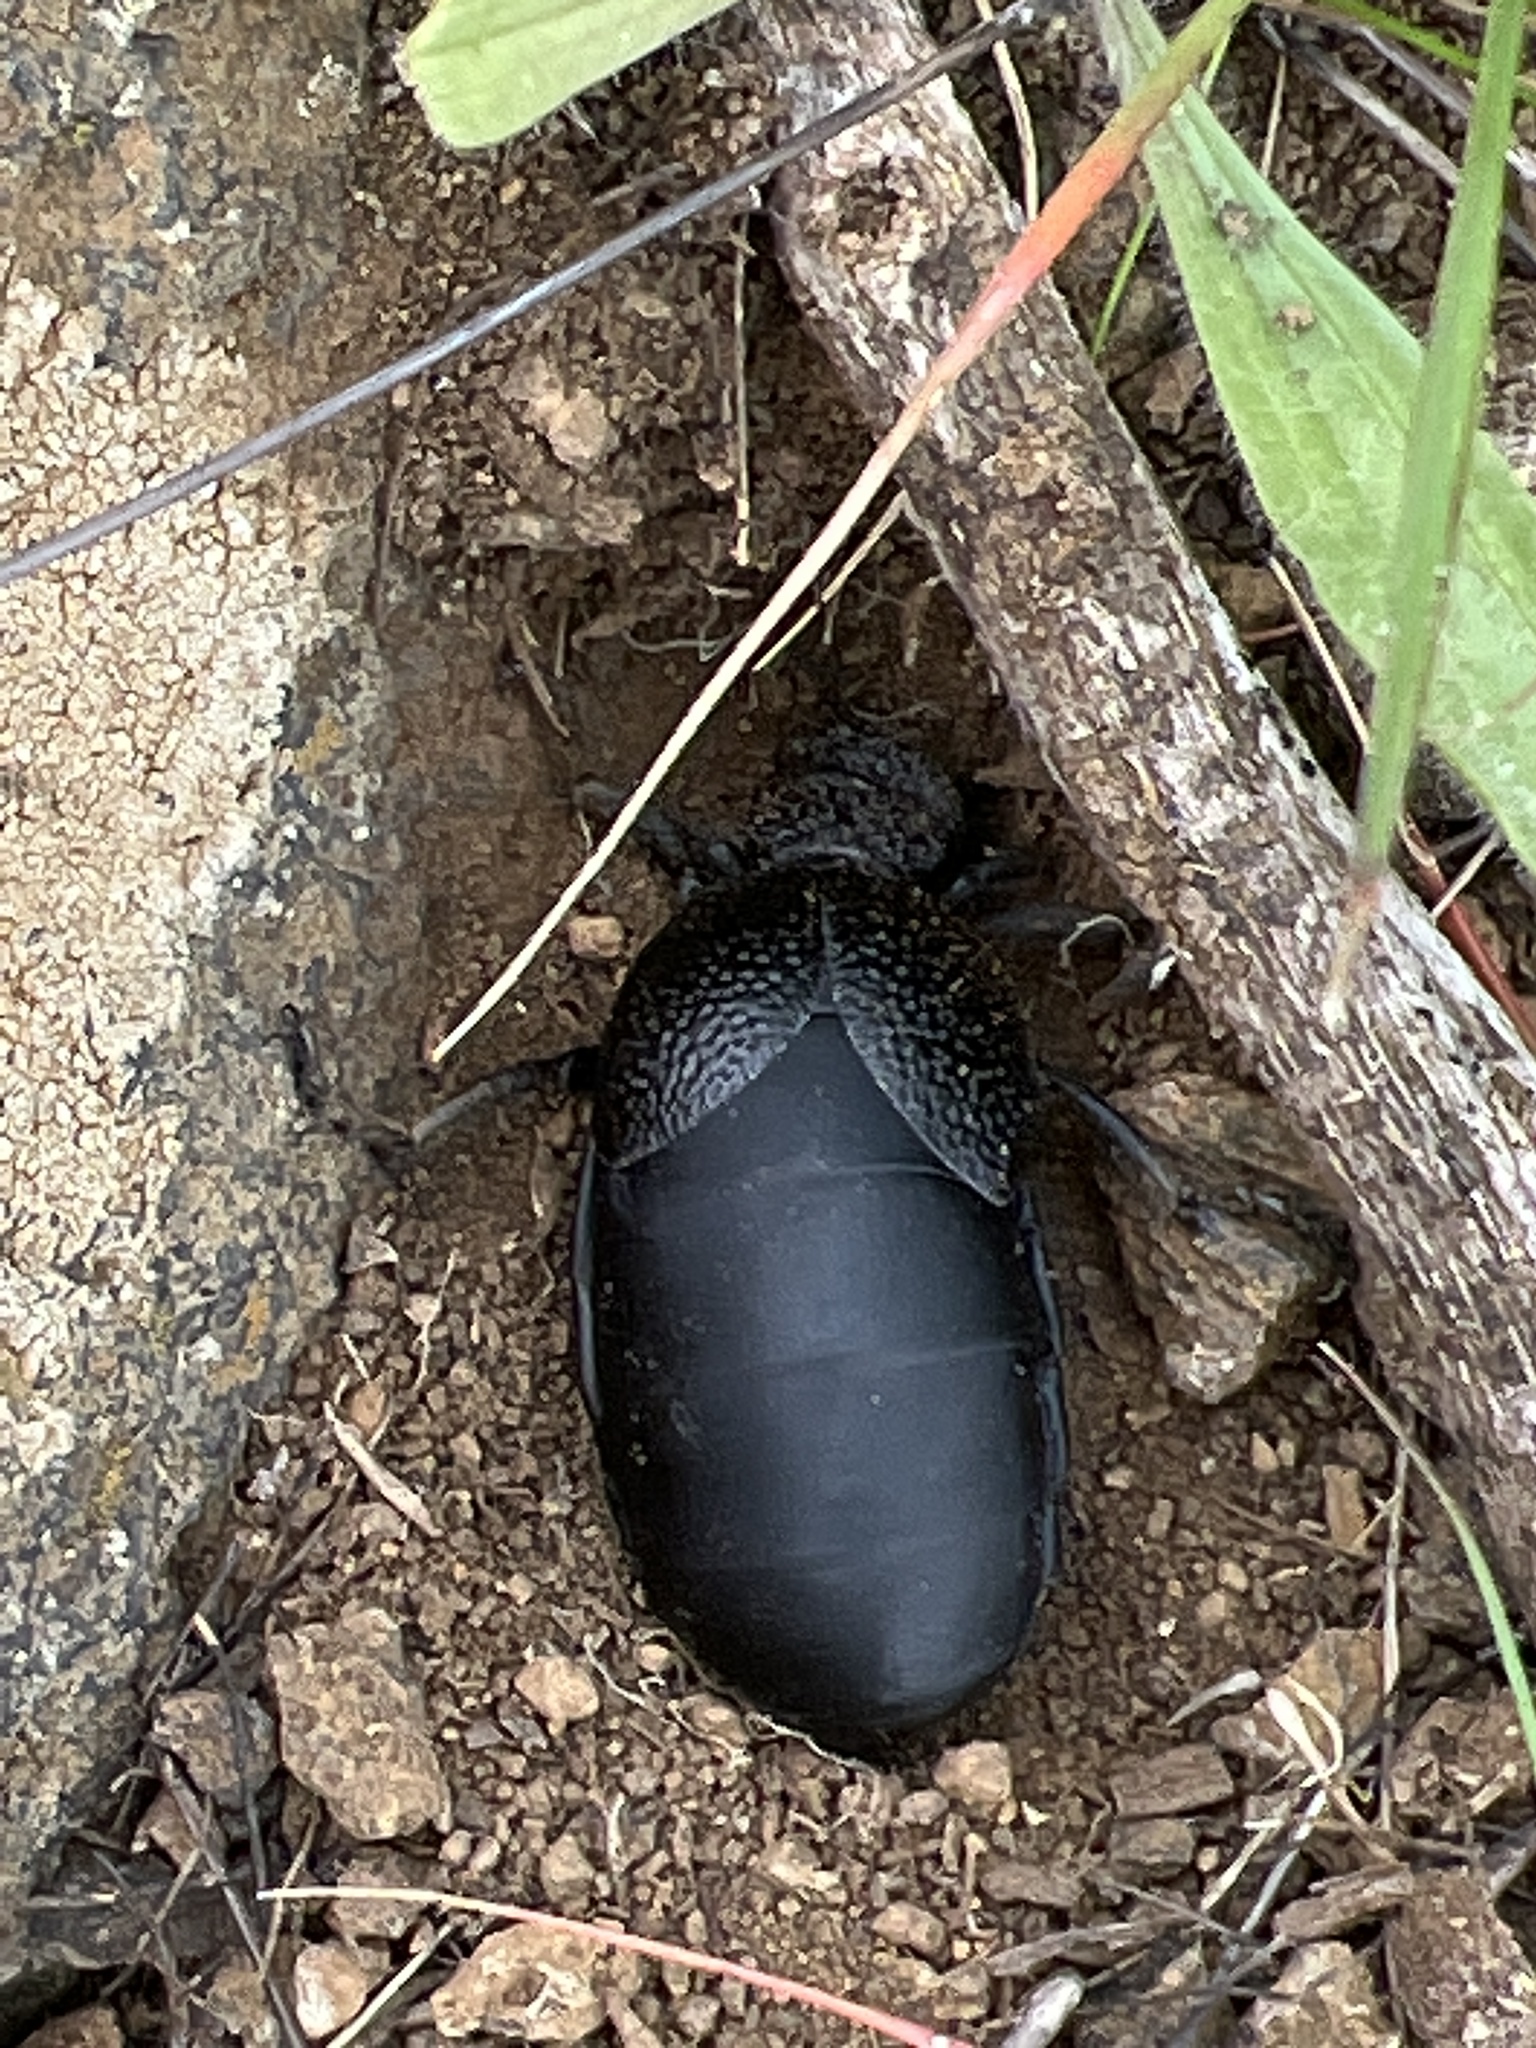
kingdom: Animalia
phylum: Arthropoda
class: Insecta
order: Coleoptera
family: Meloidae
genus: Meloe
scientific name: Meloe tuccius
